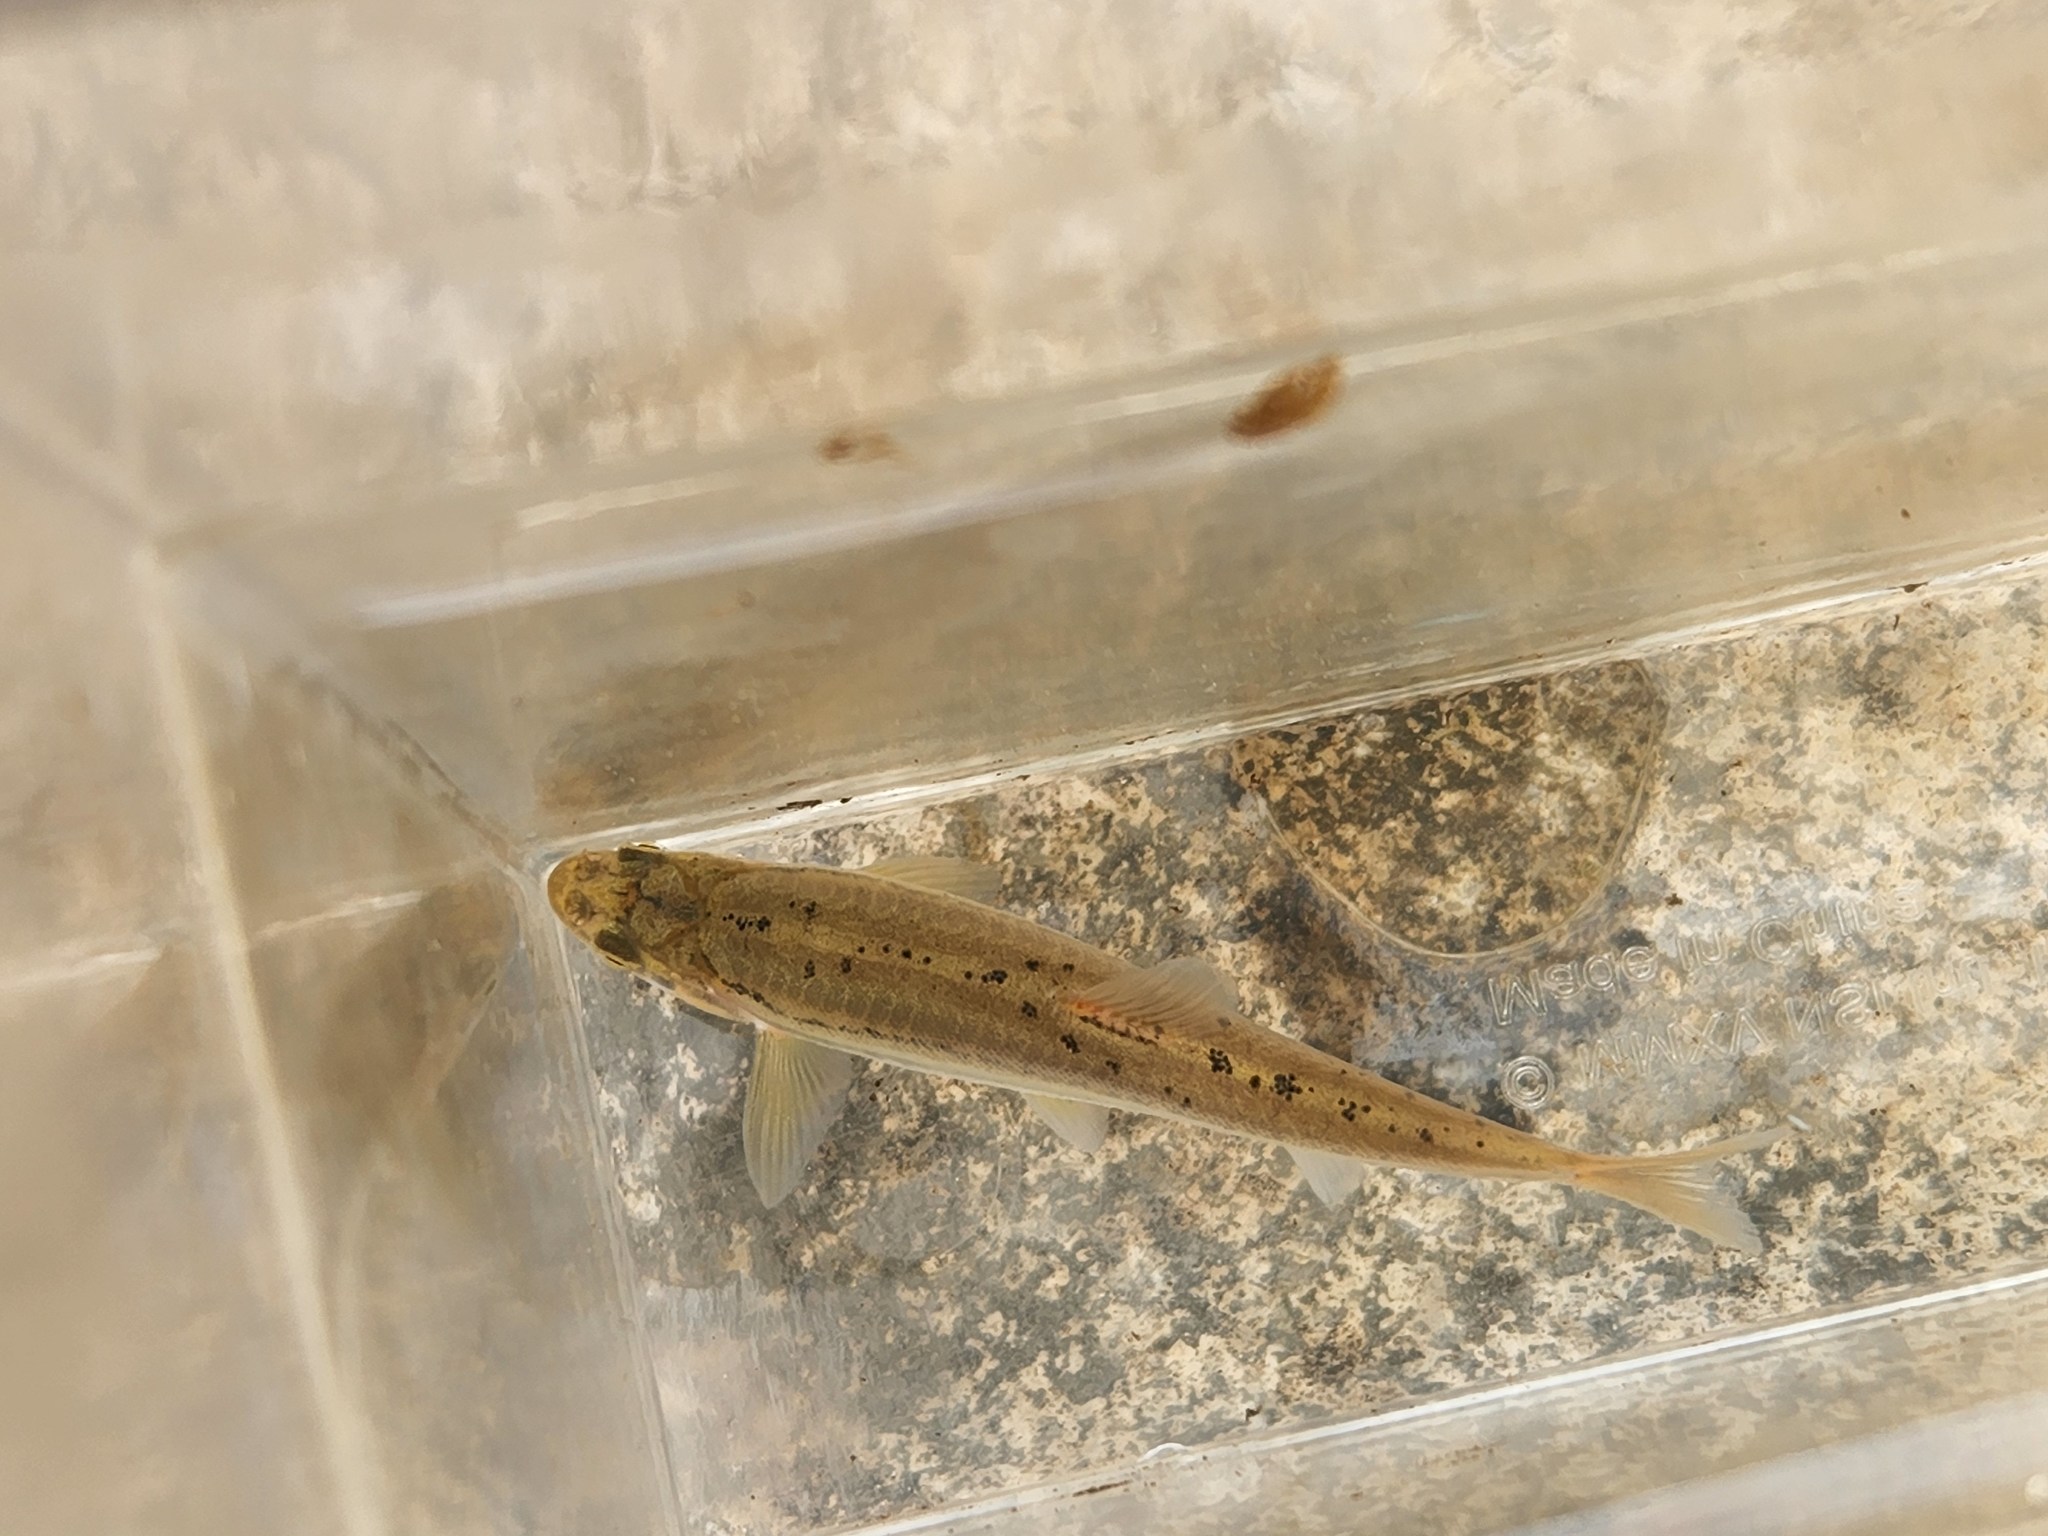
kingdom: Animalia
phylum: Chordata
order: Cypriniformes
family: Cyprinidae
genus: Chrosomus
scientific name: Chrosomus erythrogaster
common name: Southern redbelly dace
